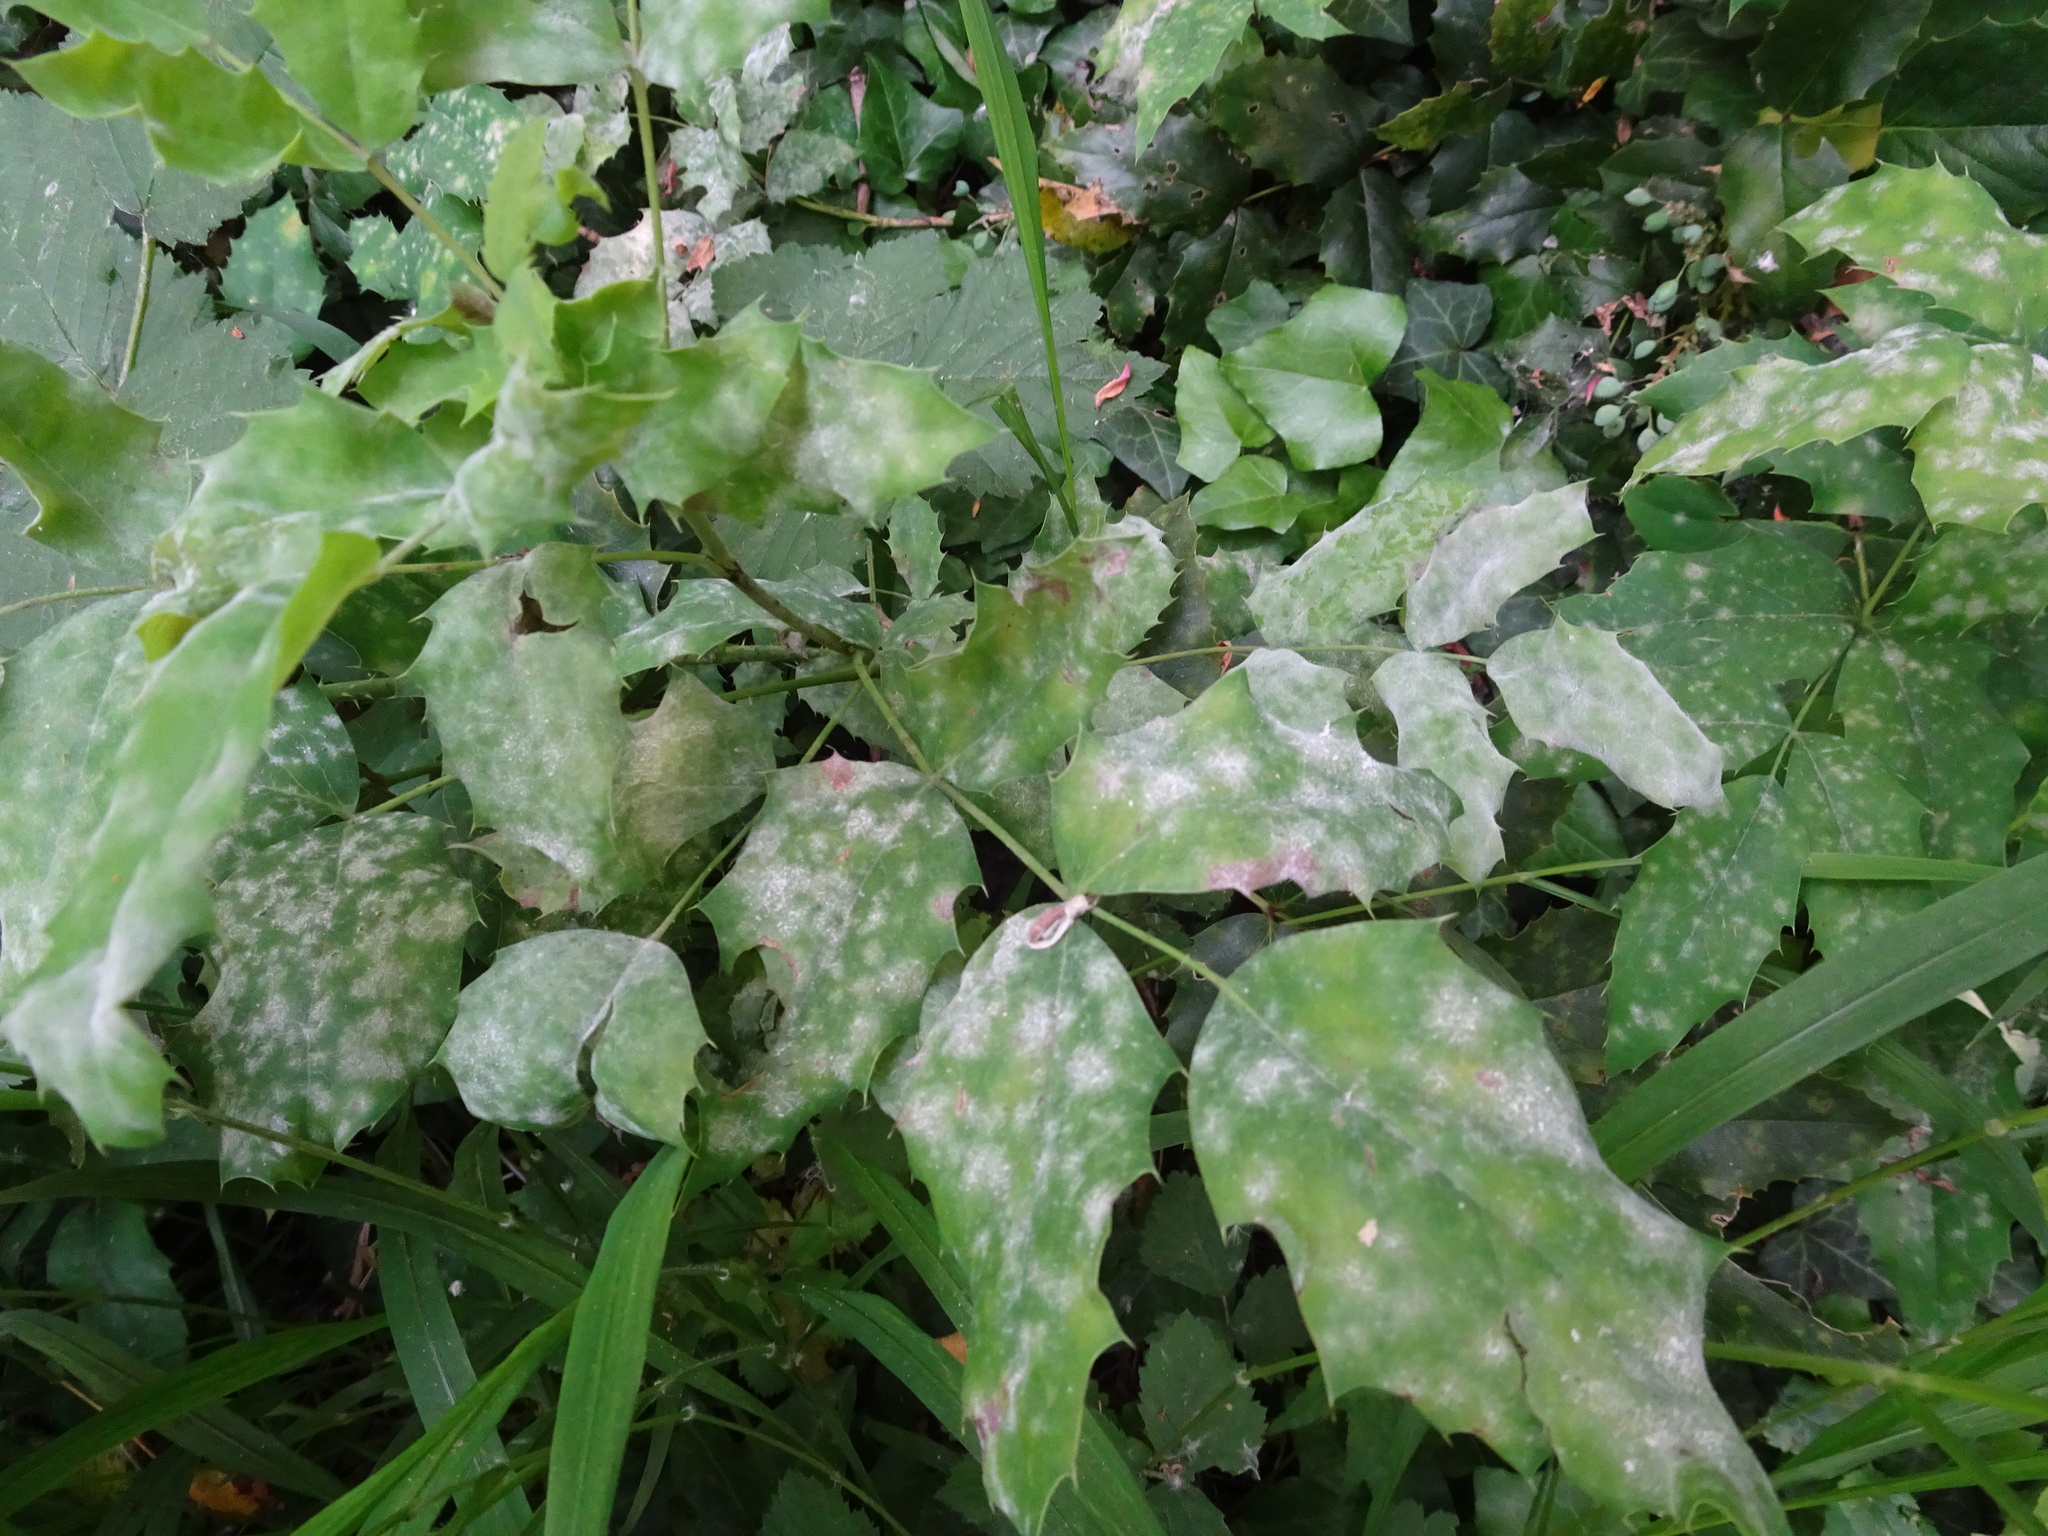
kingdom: Fungi
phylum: Ascomycota
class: Leotiomycetes
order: Helotiales
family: Erysiphaceae
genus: Erysiphe
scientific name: Erysiphe berberidis
